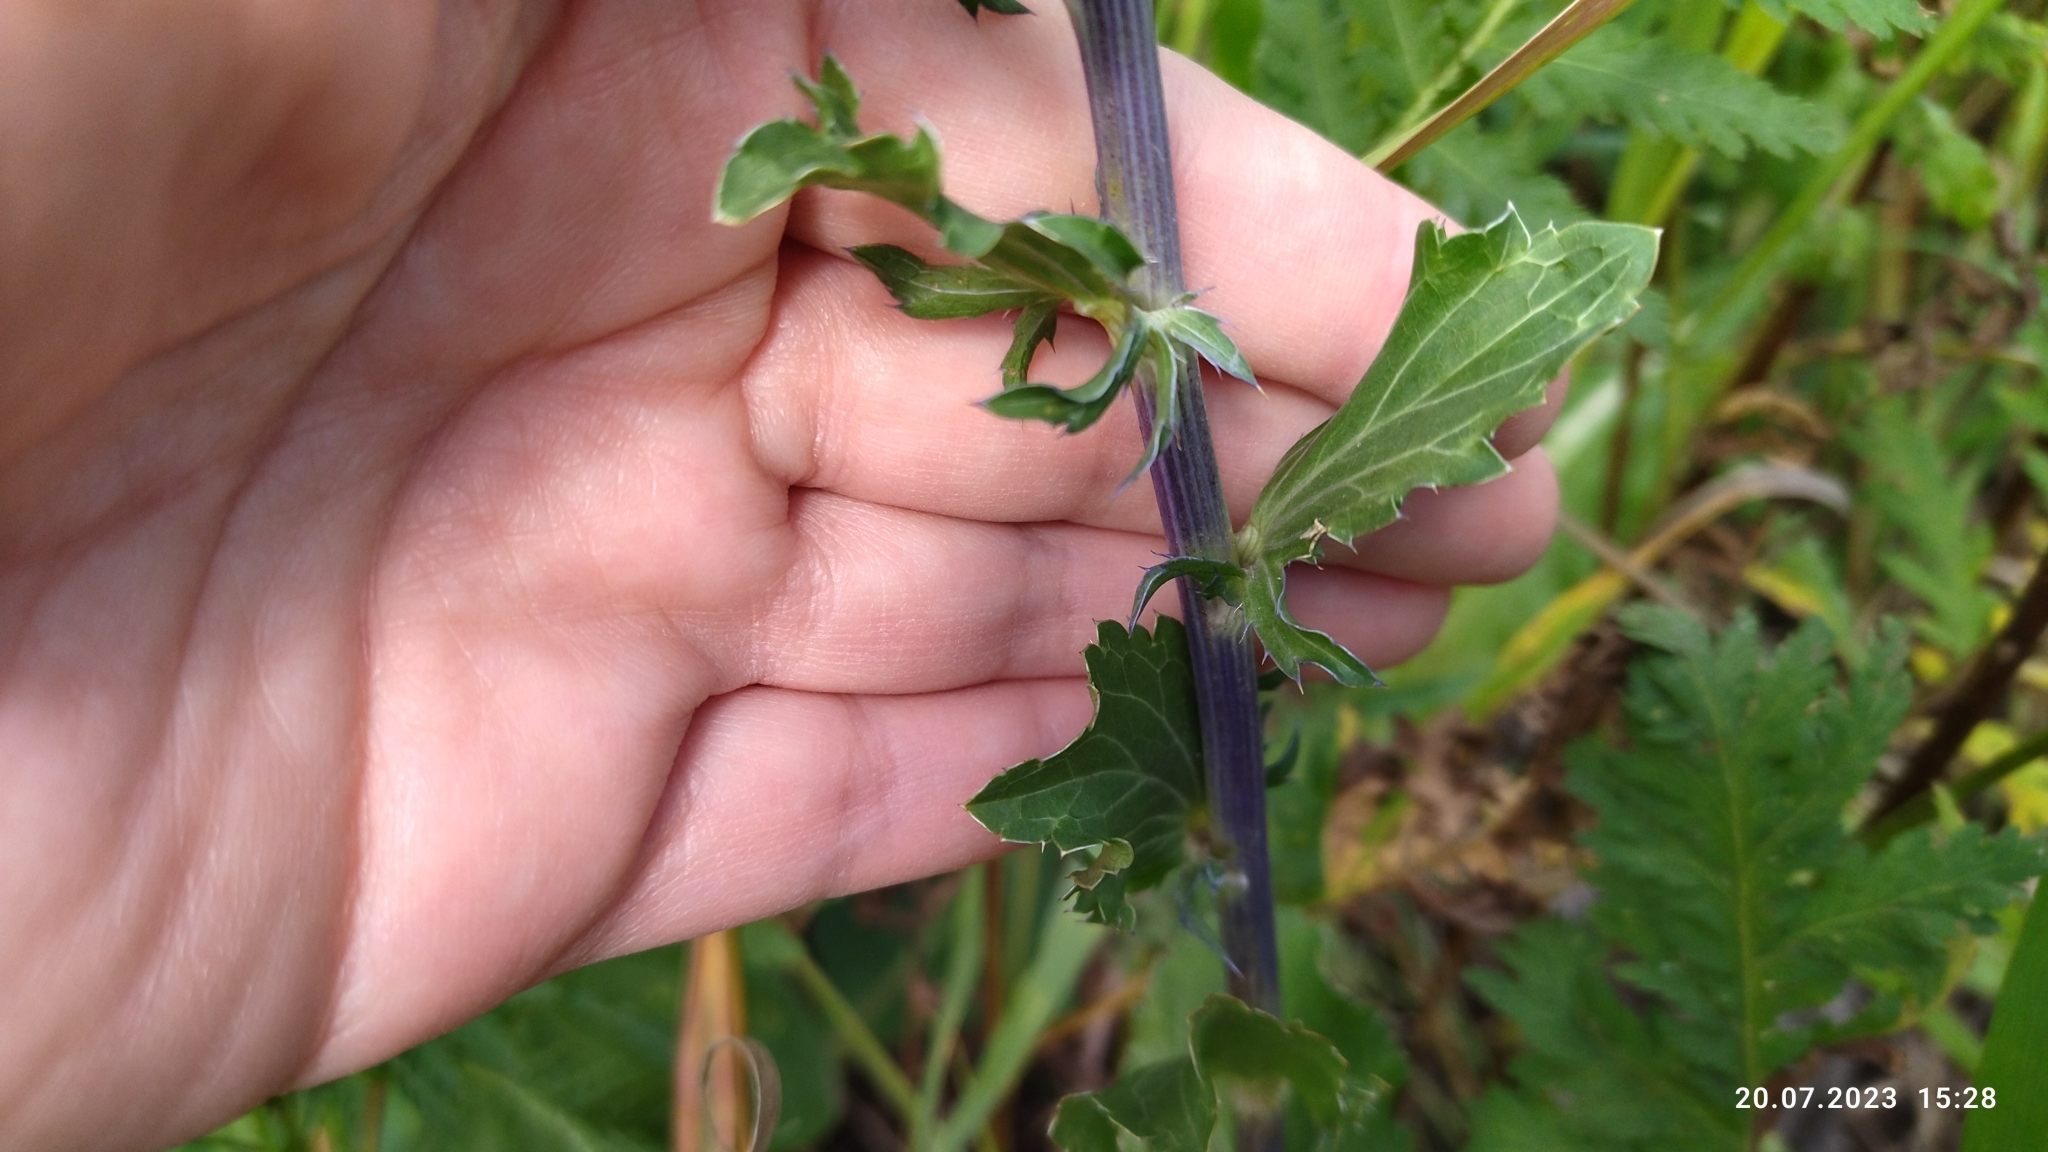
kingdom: Plantae
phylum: Tracheophyta
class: Magnoliopsida
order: Apiales
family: Apiaceae
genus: Eryngium
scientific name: Eryngium planum
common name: Blue eryngo
